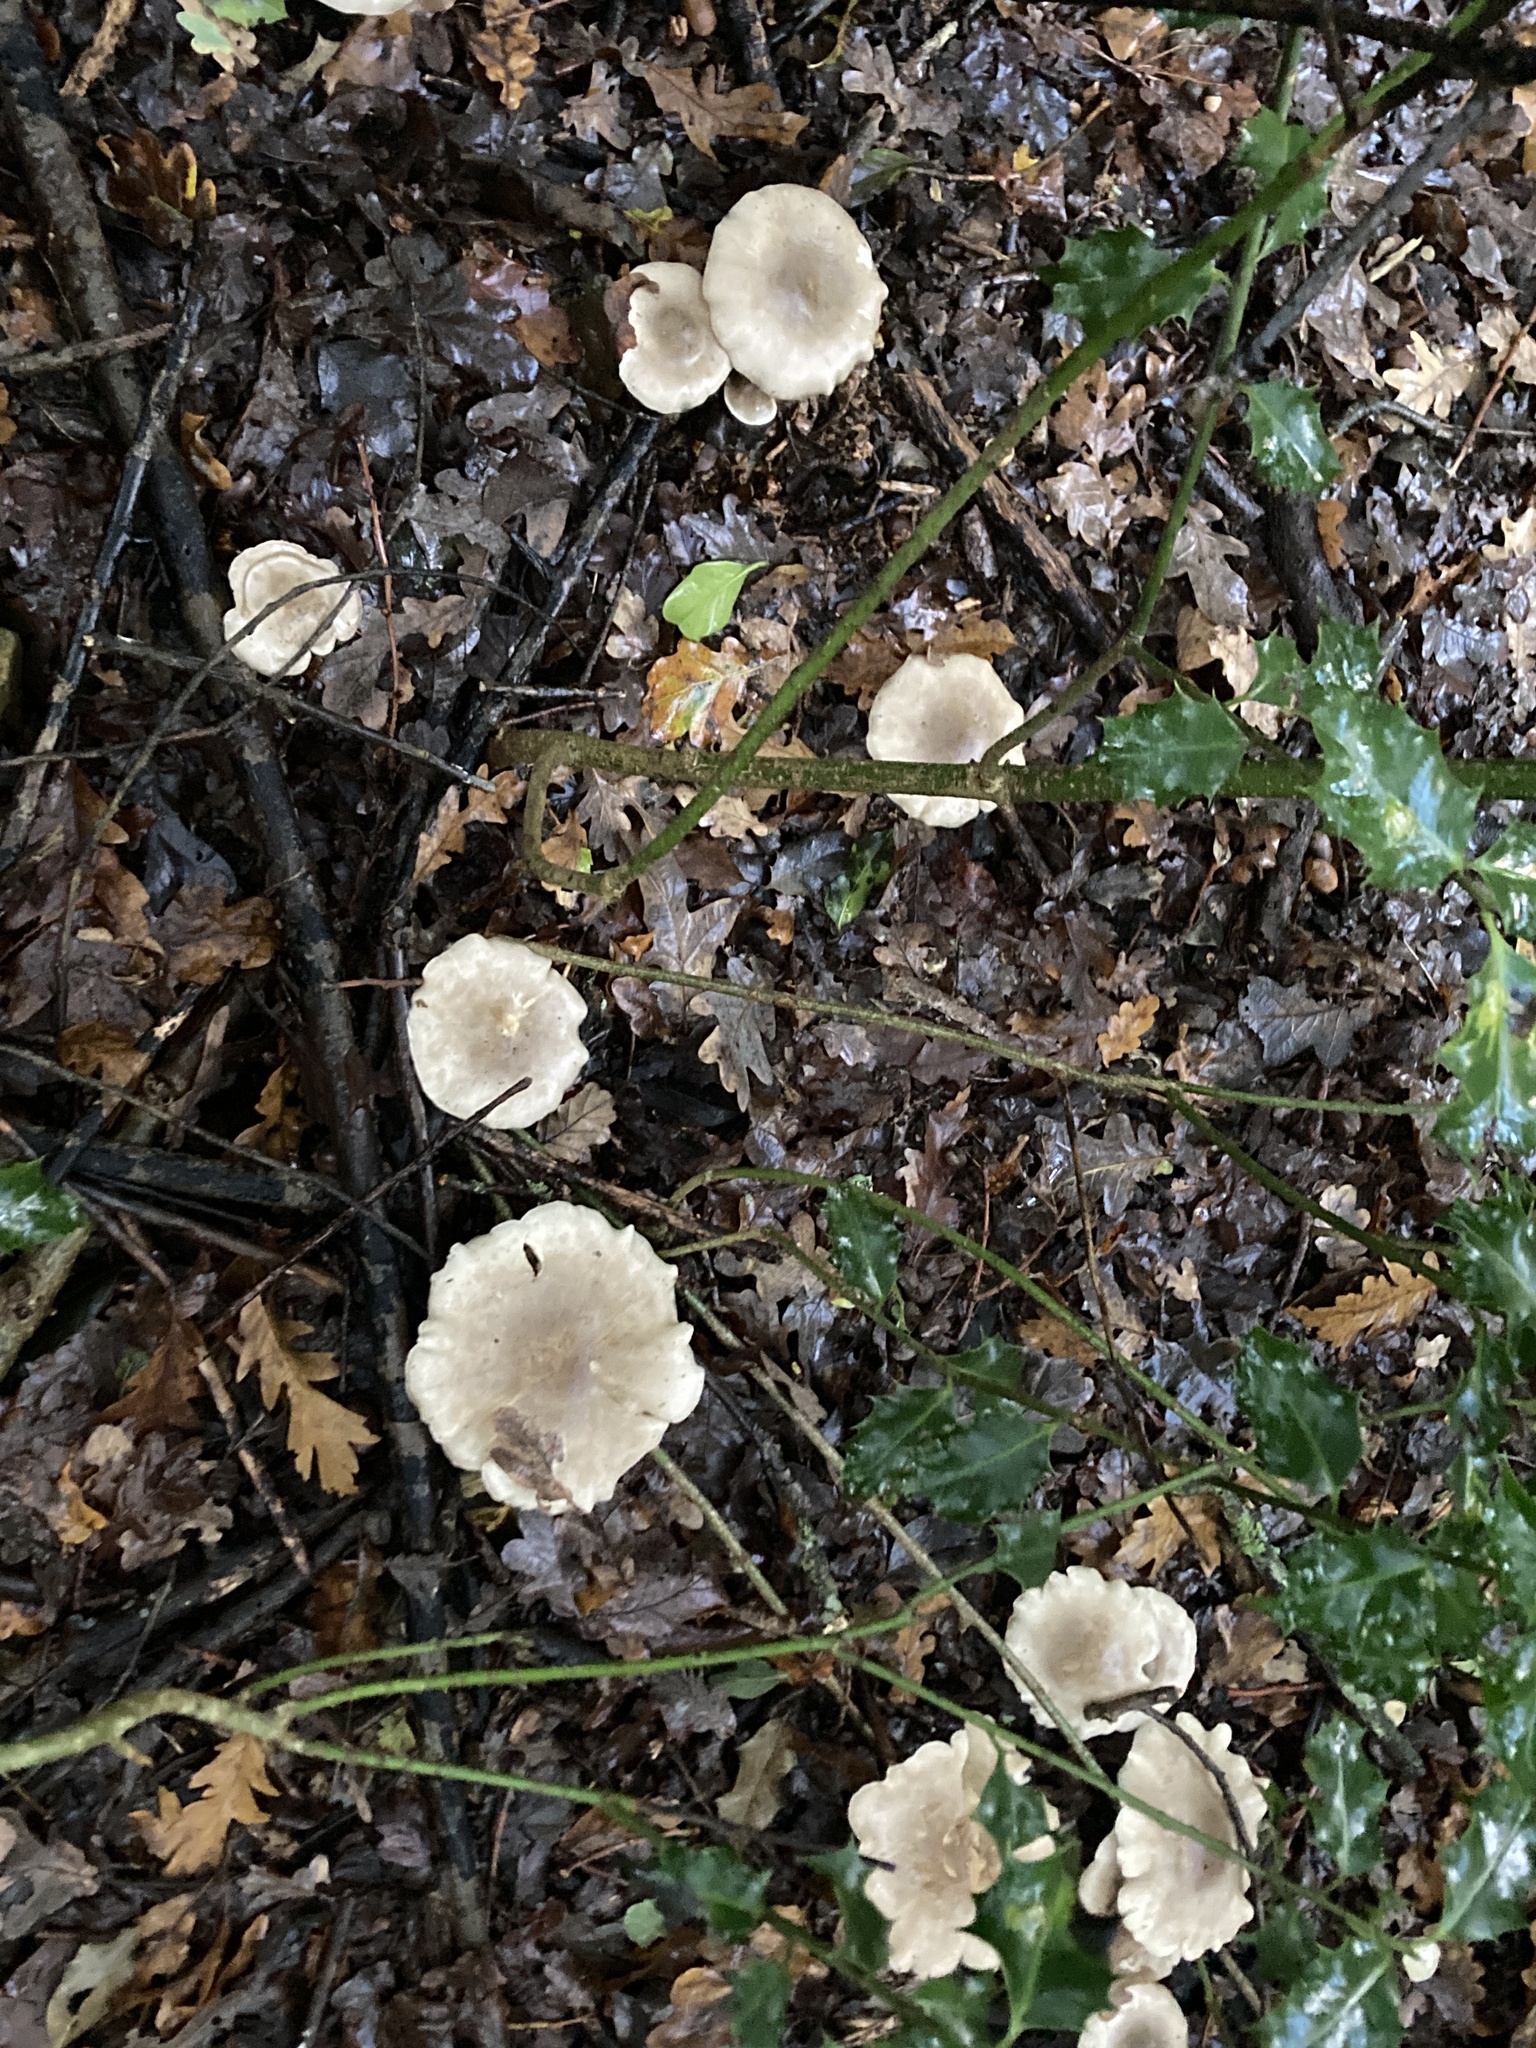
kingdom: Fungi
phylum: Basidiomycota
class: Agaricomycetes
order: Agaricales
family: Tricholomataceae
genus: Clitocybe
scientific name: Clitocybe nebularis
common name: Clouded agaric
